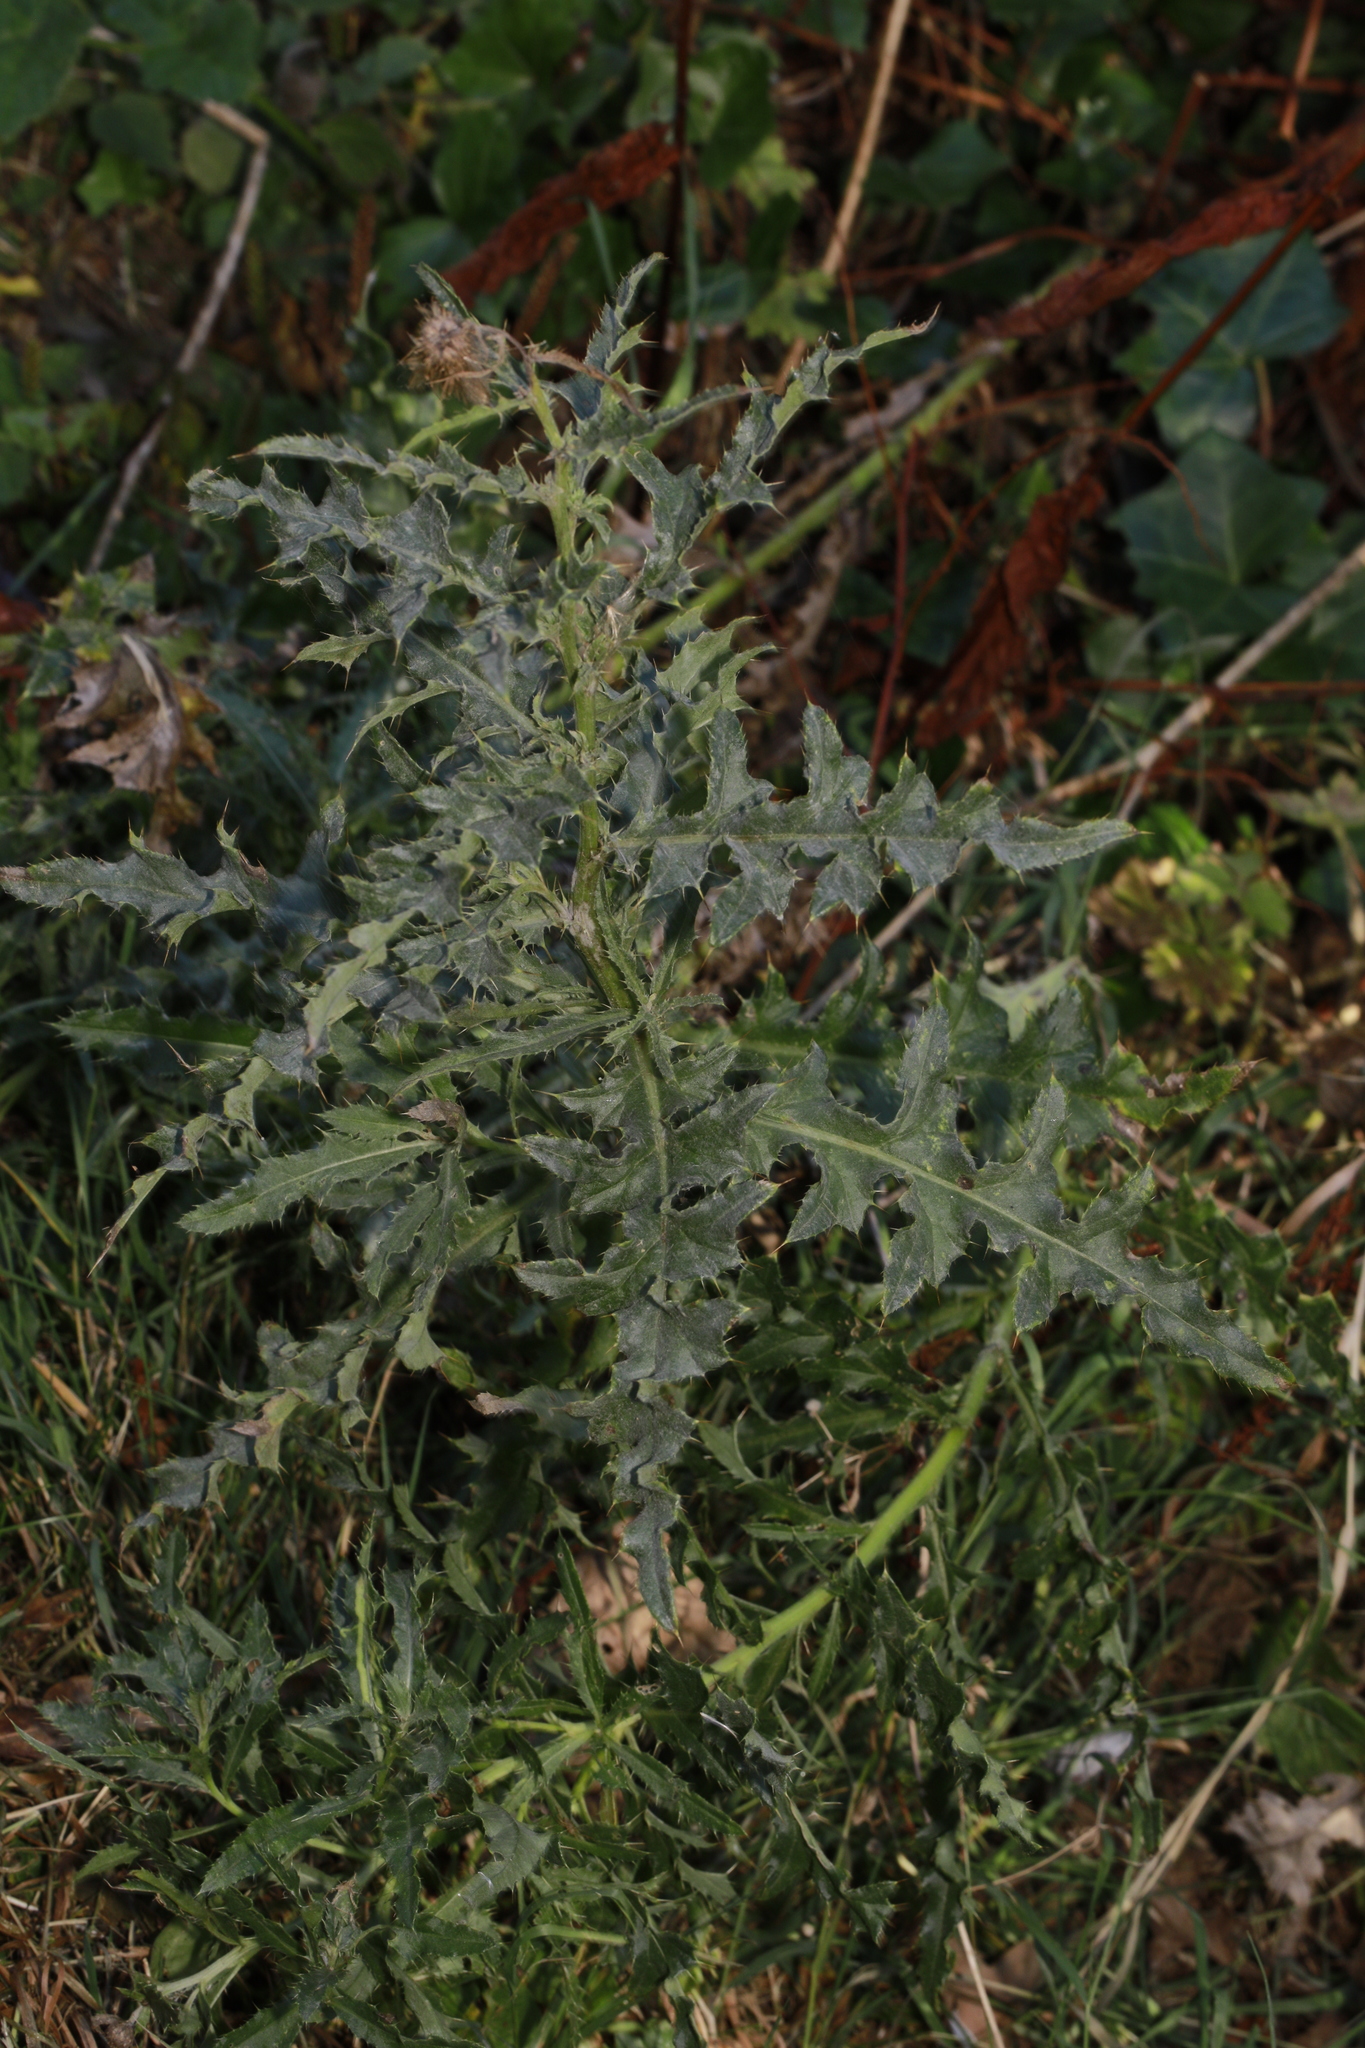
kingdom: Plantae
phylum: Tracheophyta
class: Magnoliopsida
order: Asterales
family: Asteraceae
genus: Cirsium
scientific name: Cirsium arvense
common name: Creeping thistle
